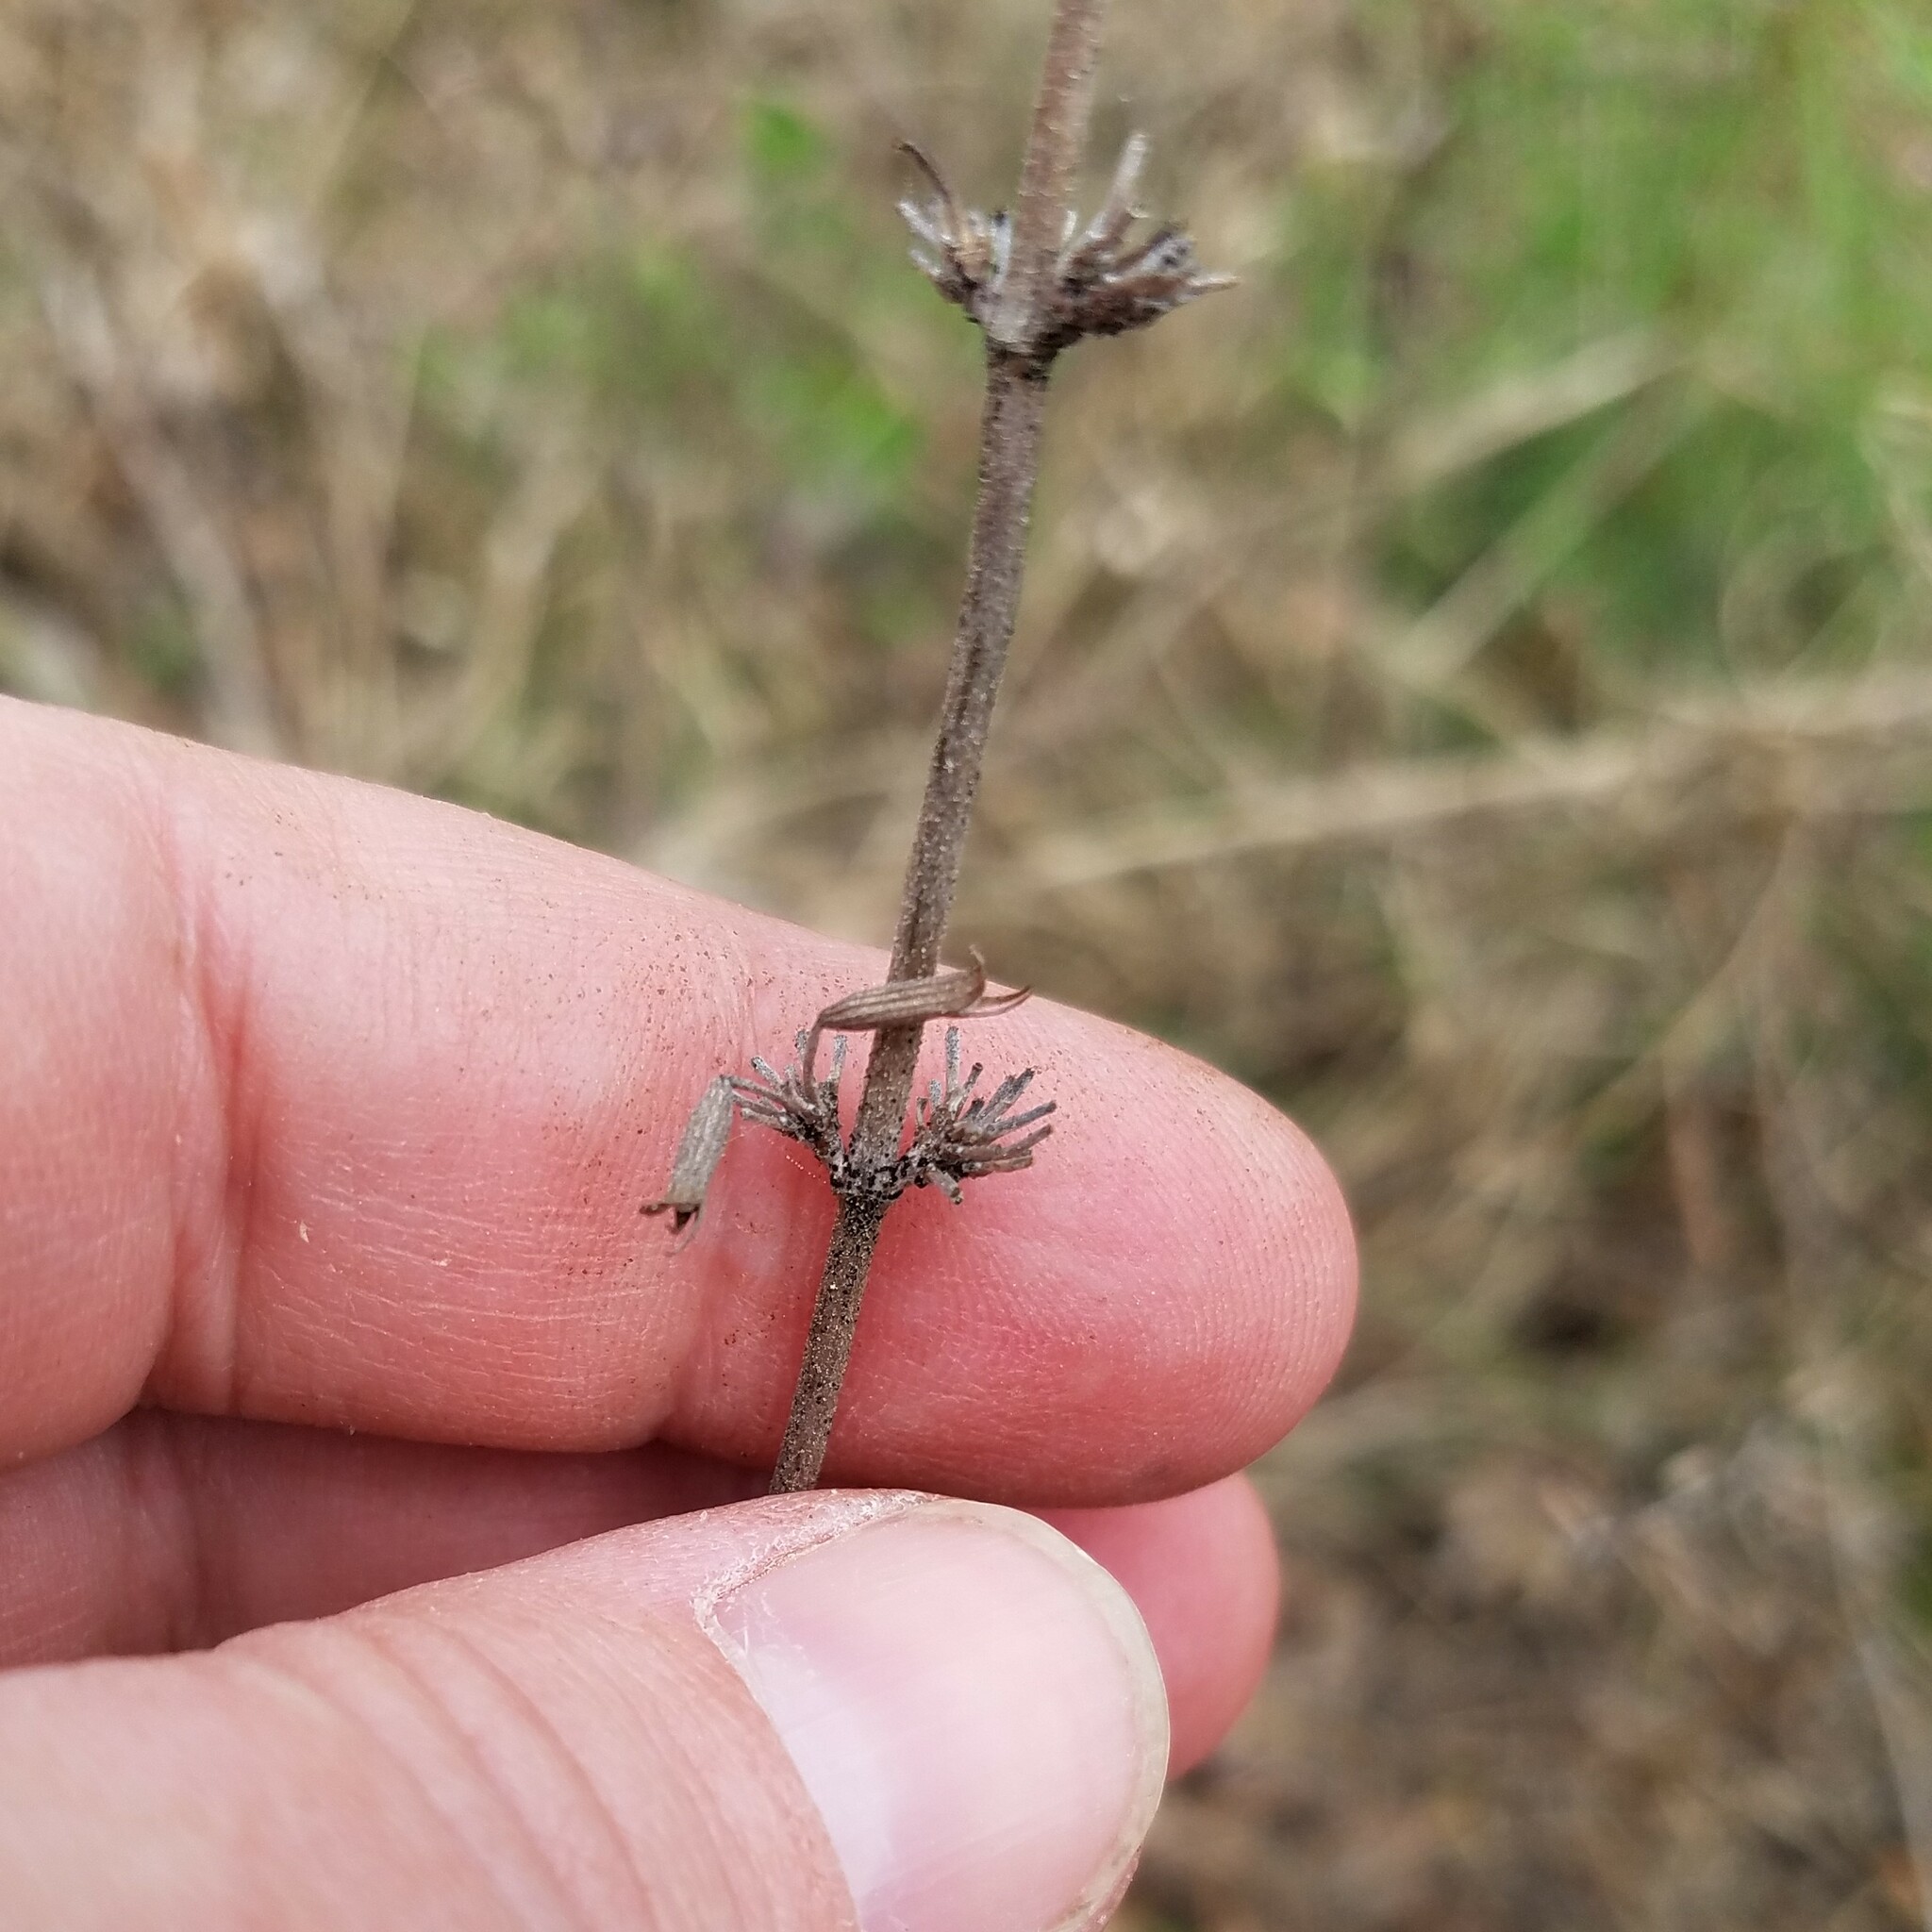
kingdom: Plantae
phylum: Tracheophyta
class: Magnoliopsida
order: Lamiales
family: Lamiaceae
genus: Clinopodium
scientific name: Clinopodium carolinianum
